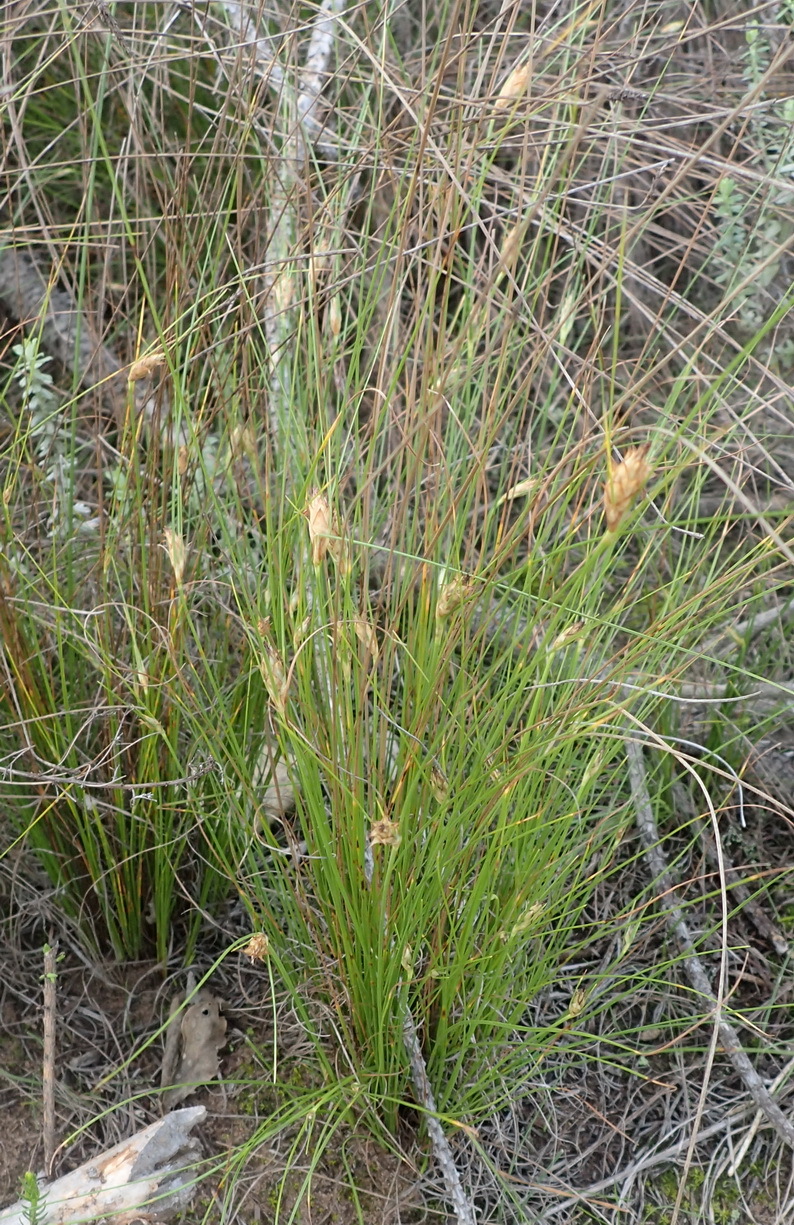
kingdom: Plantae
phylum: Tracheophyta
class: Liliopsida
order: Poales
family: Cyperaceae
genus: Ficinia
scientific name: Ficinia nigrescens
